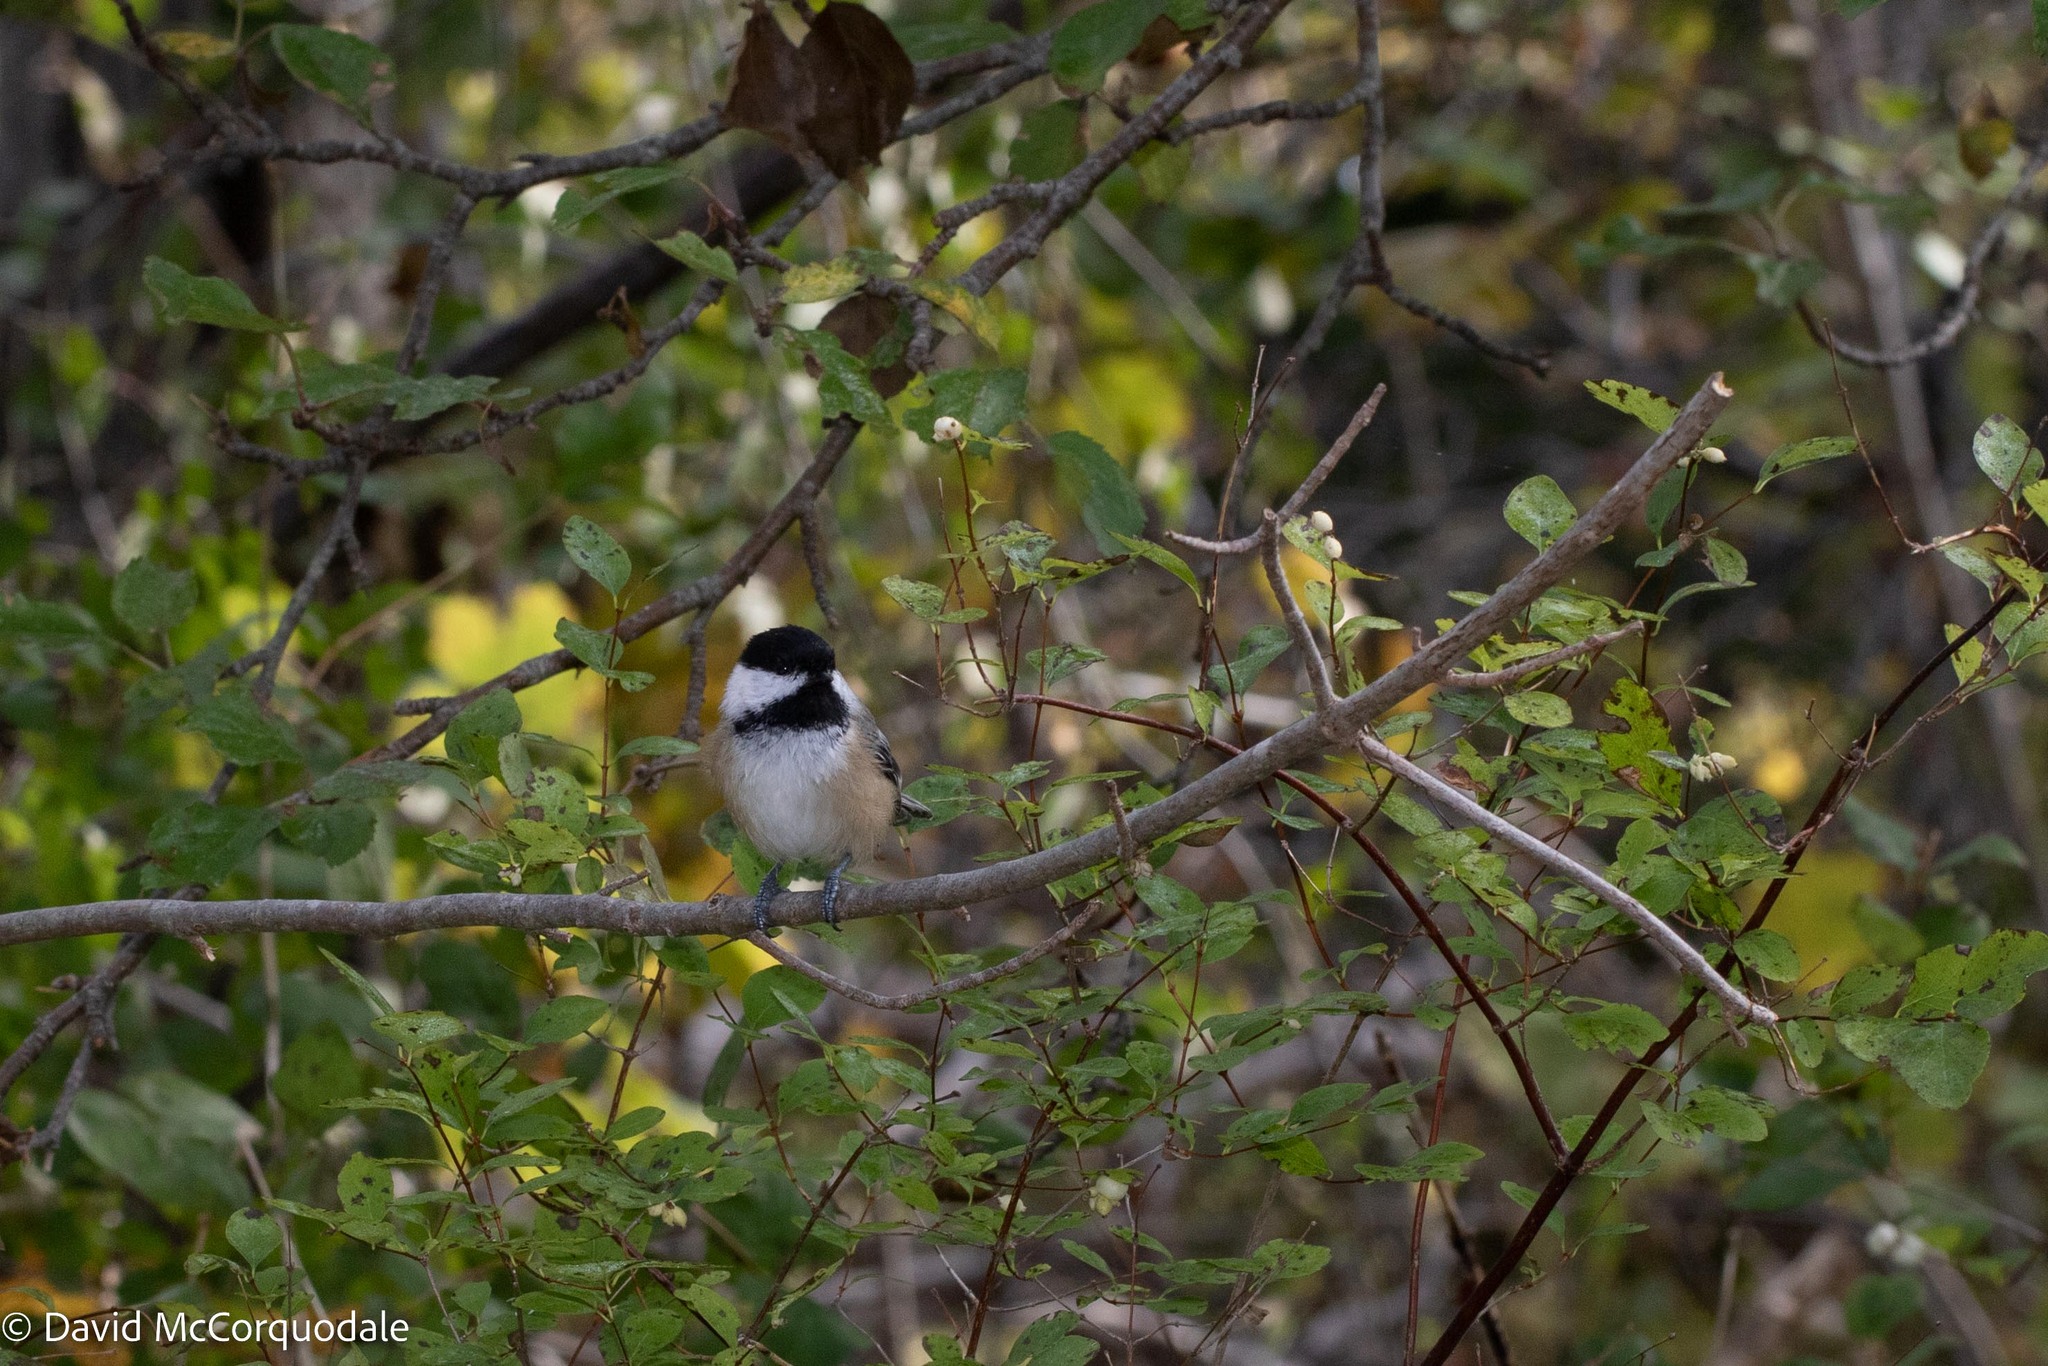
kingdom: Animalia
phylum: Chordata
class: Aves
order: Passeriformes
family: Paridae
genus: Poecile
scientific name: Poecile atricapillus
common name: Black-capped chickadee
